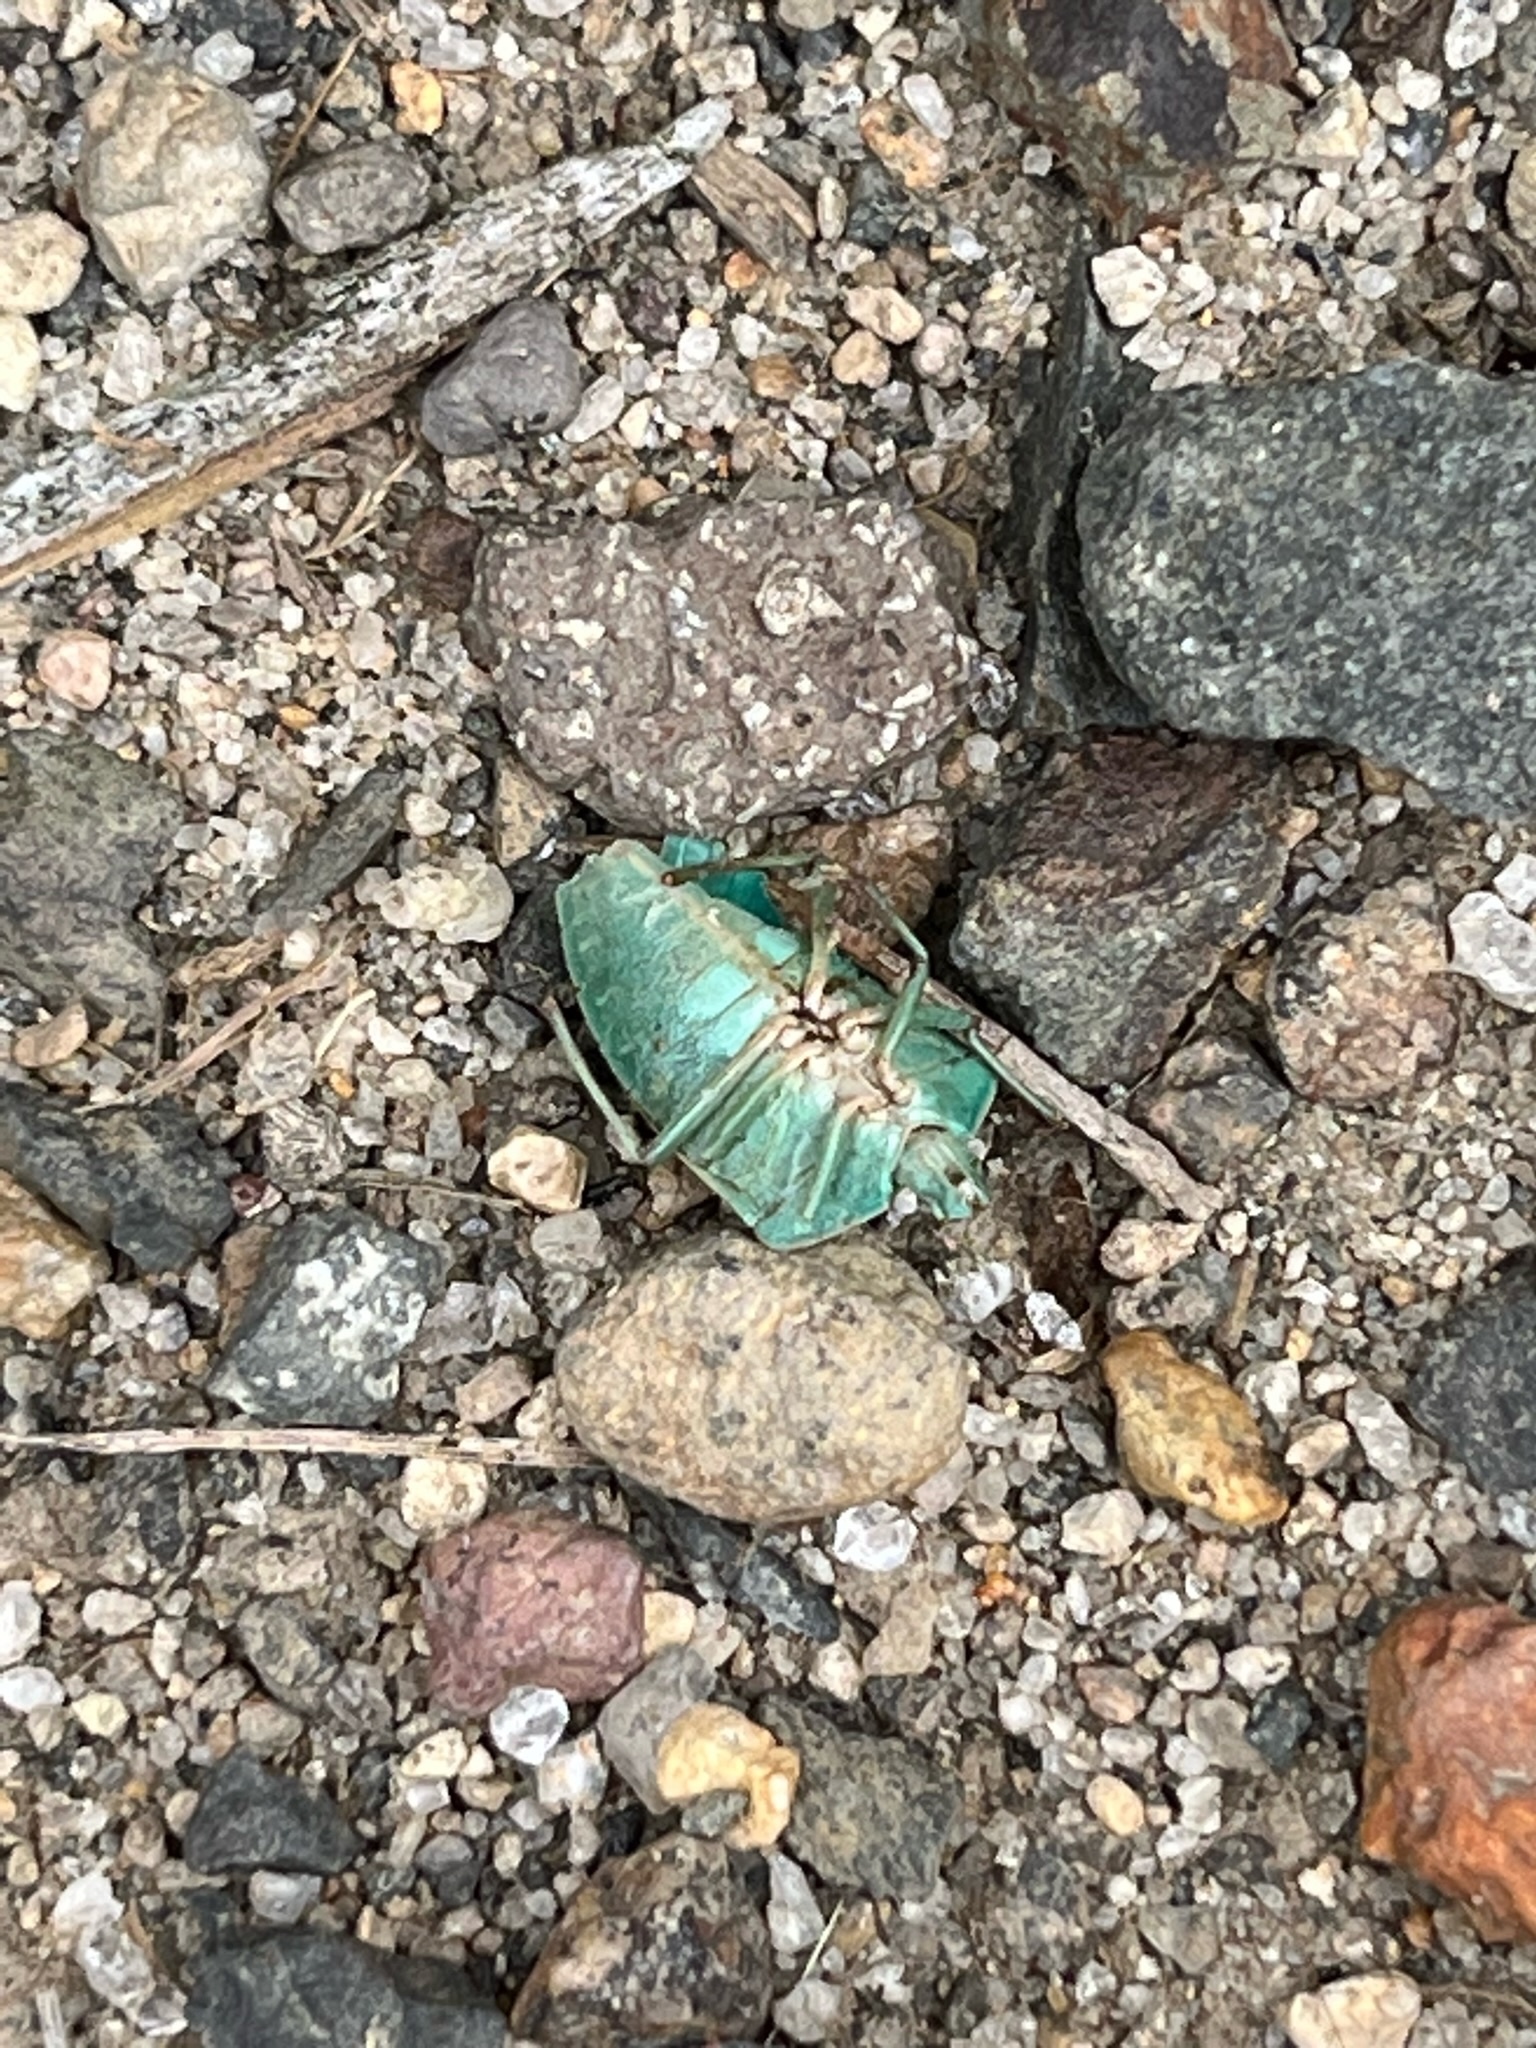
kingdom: Animalia
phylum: Arthropoda
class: Insecta
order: Hemiptera
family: Pentatomidae
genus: Nezara
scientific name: Nezara viridula
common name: Southern green stink bug
